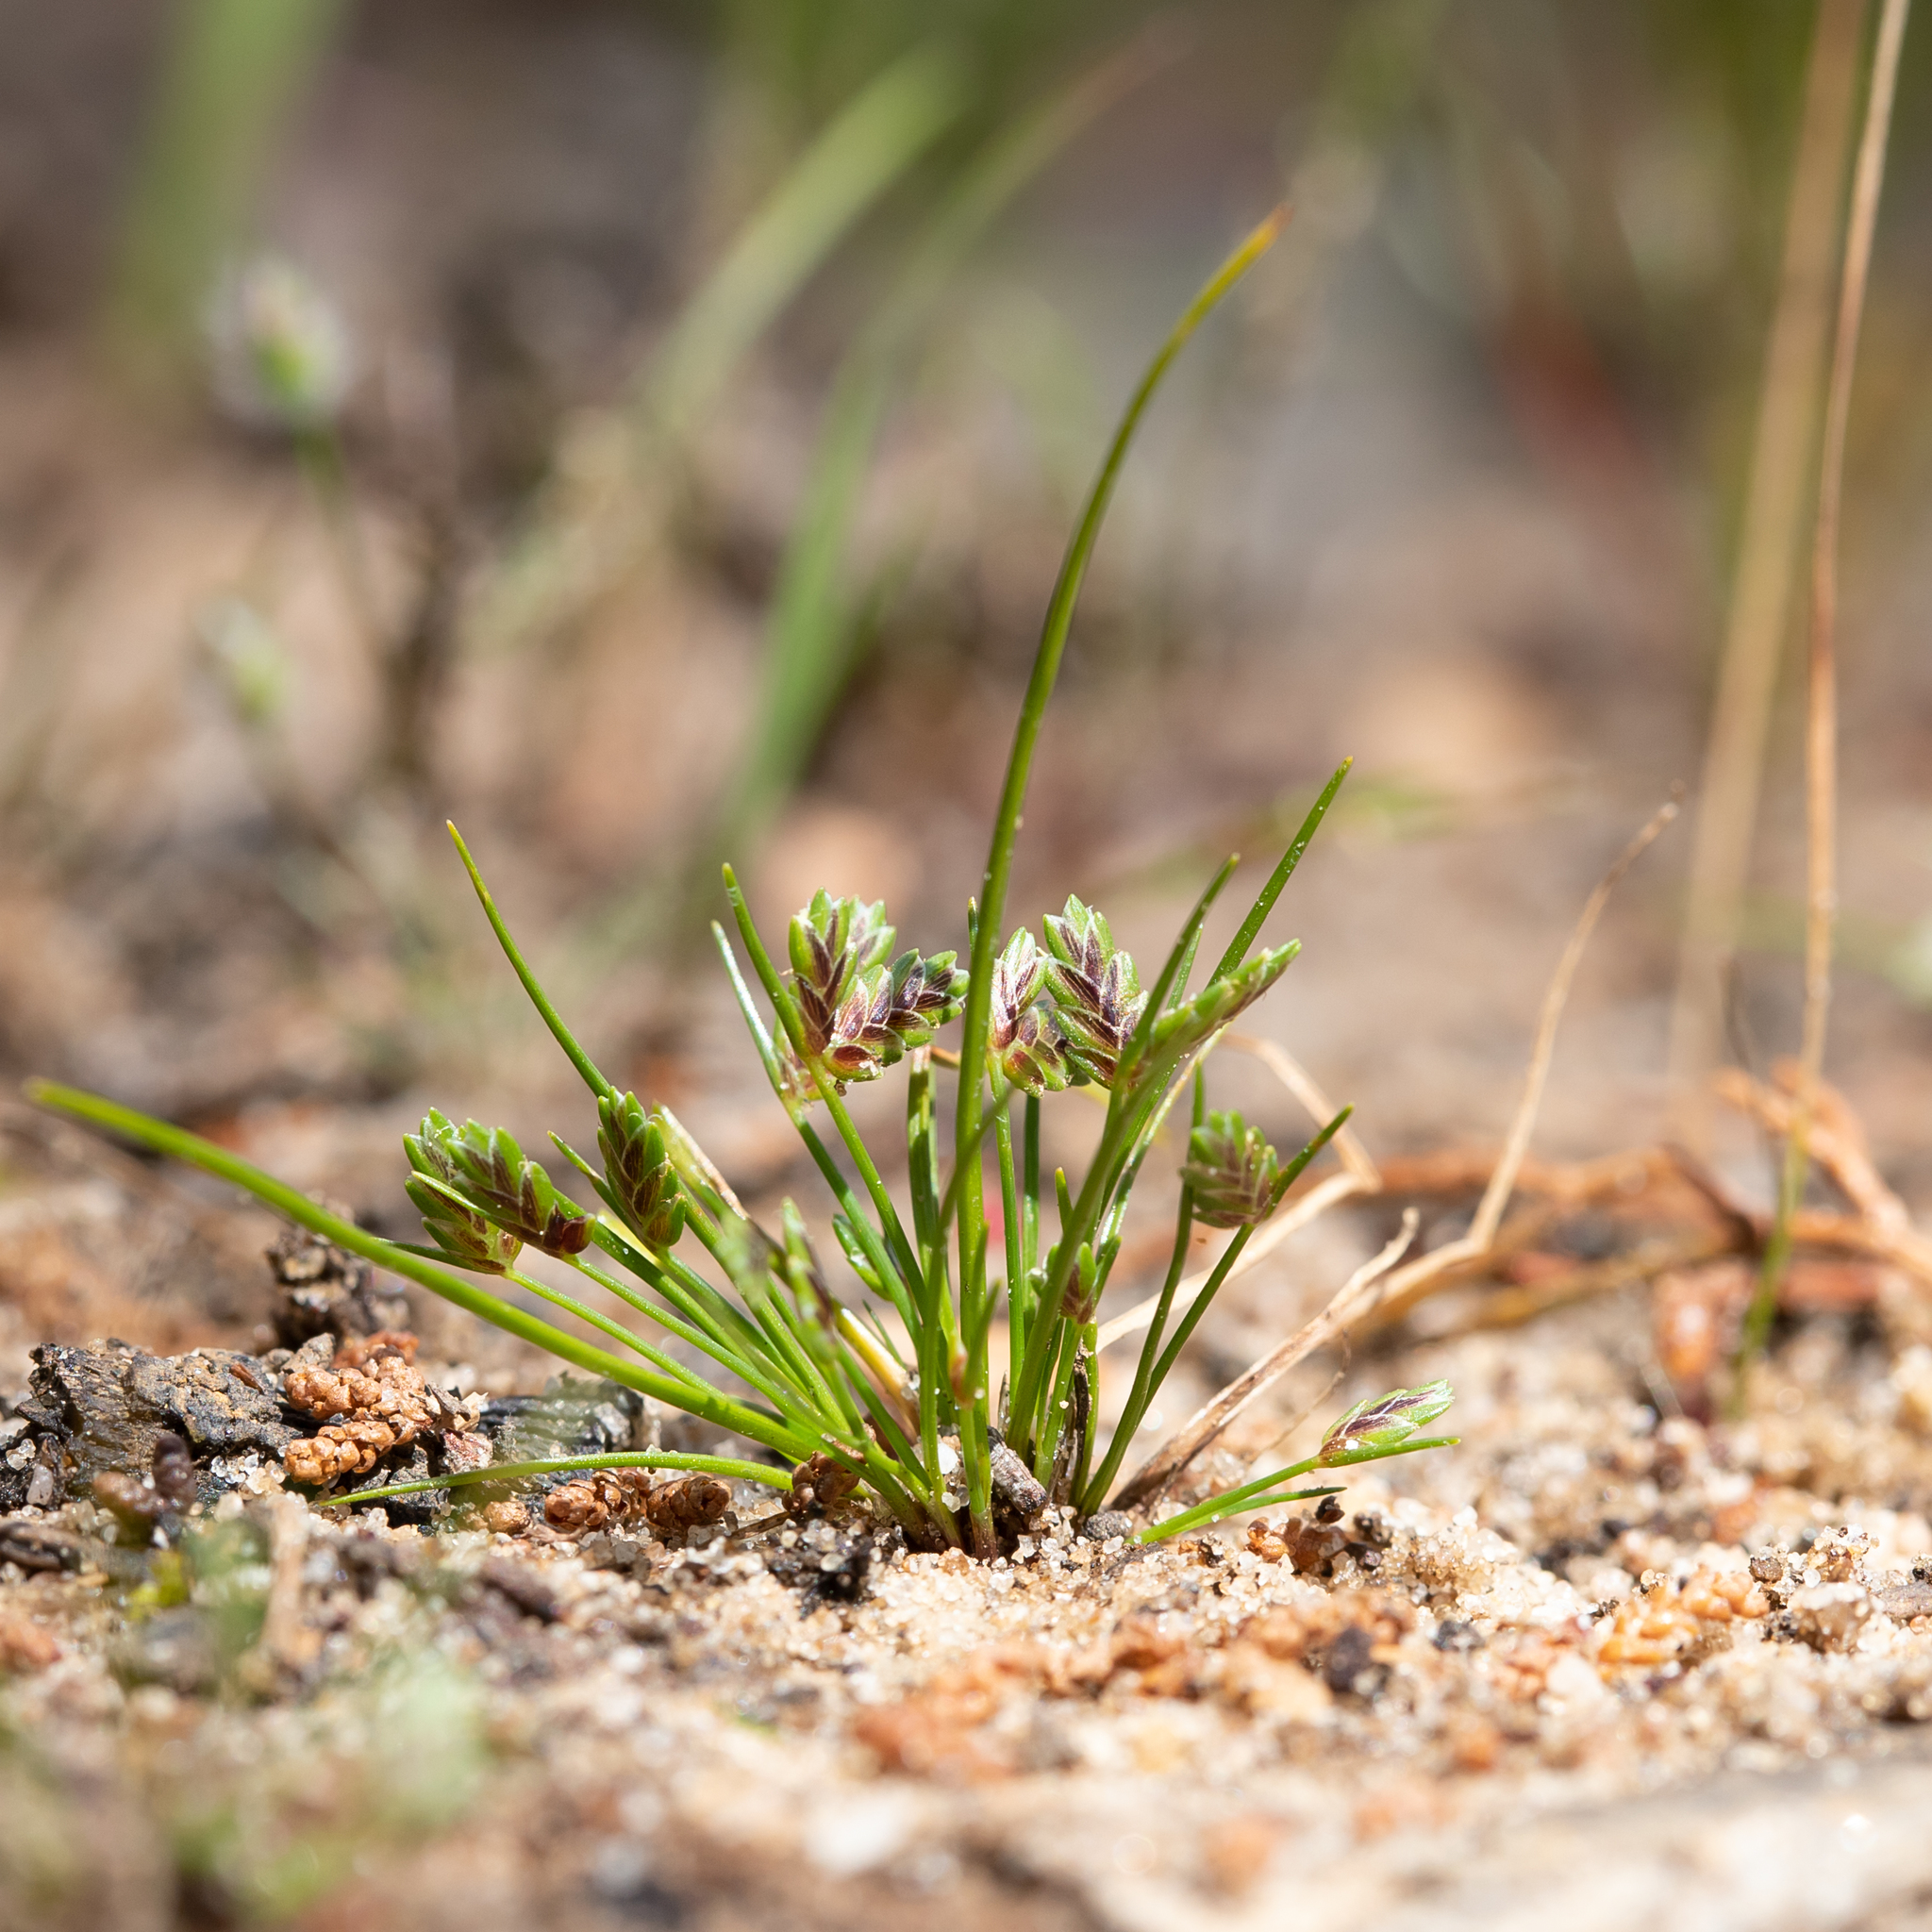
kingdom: Plantae
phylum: Tracheophyta
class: Liliopsida
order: Poales
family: Cyperaceae
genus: Isolepis
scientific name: Isolepis levynsiana
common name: Sedge
